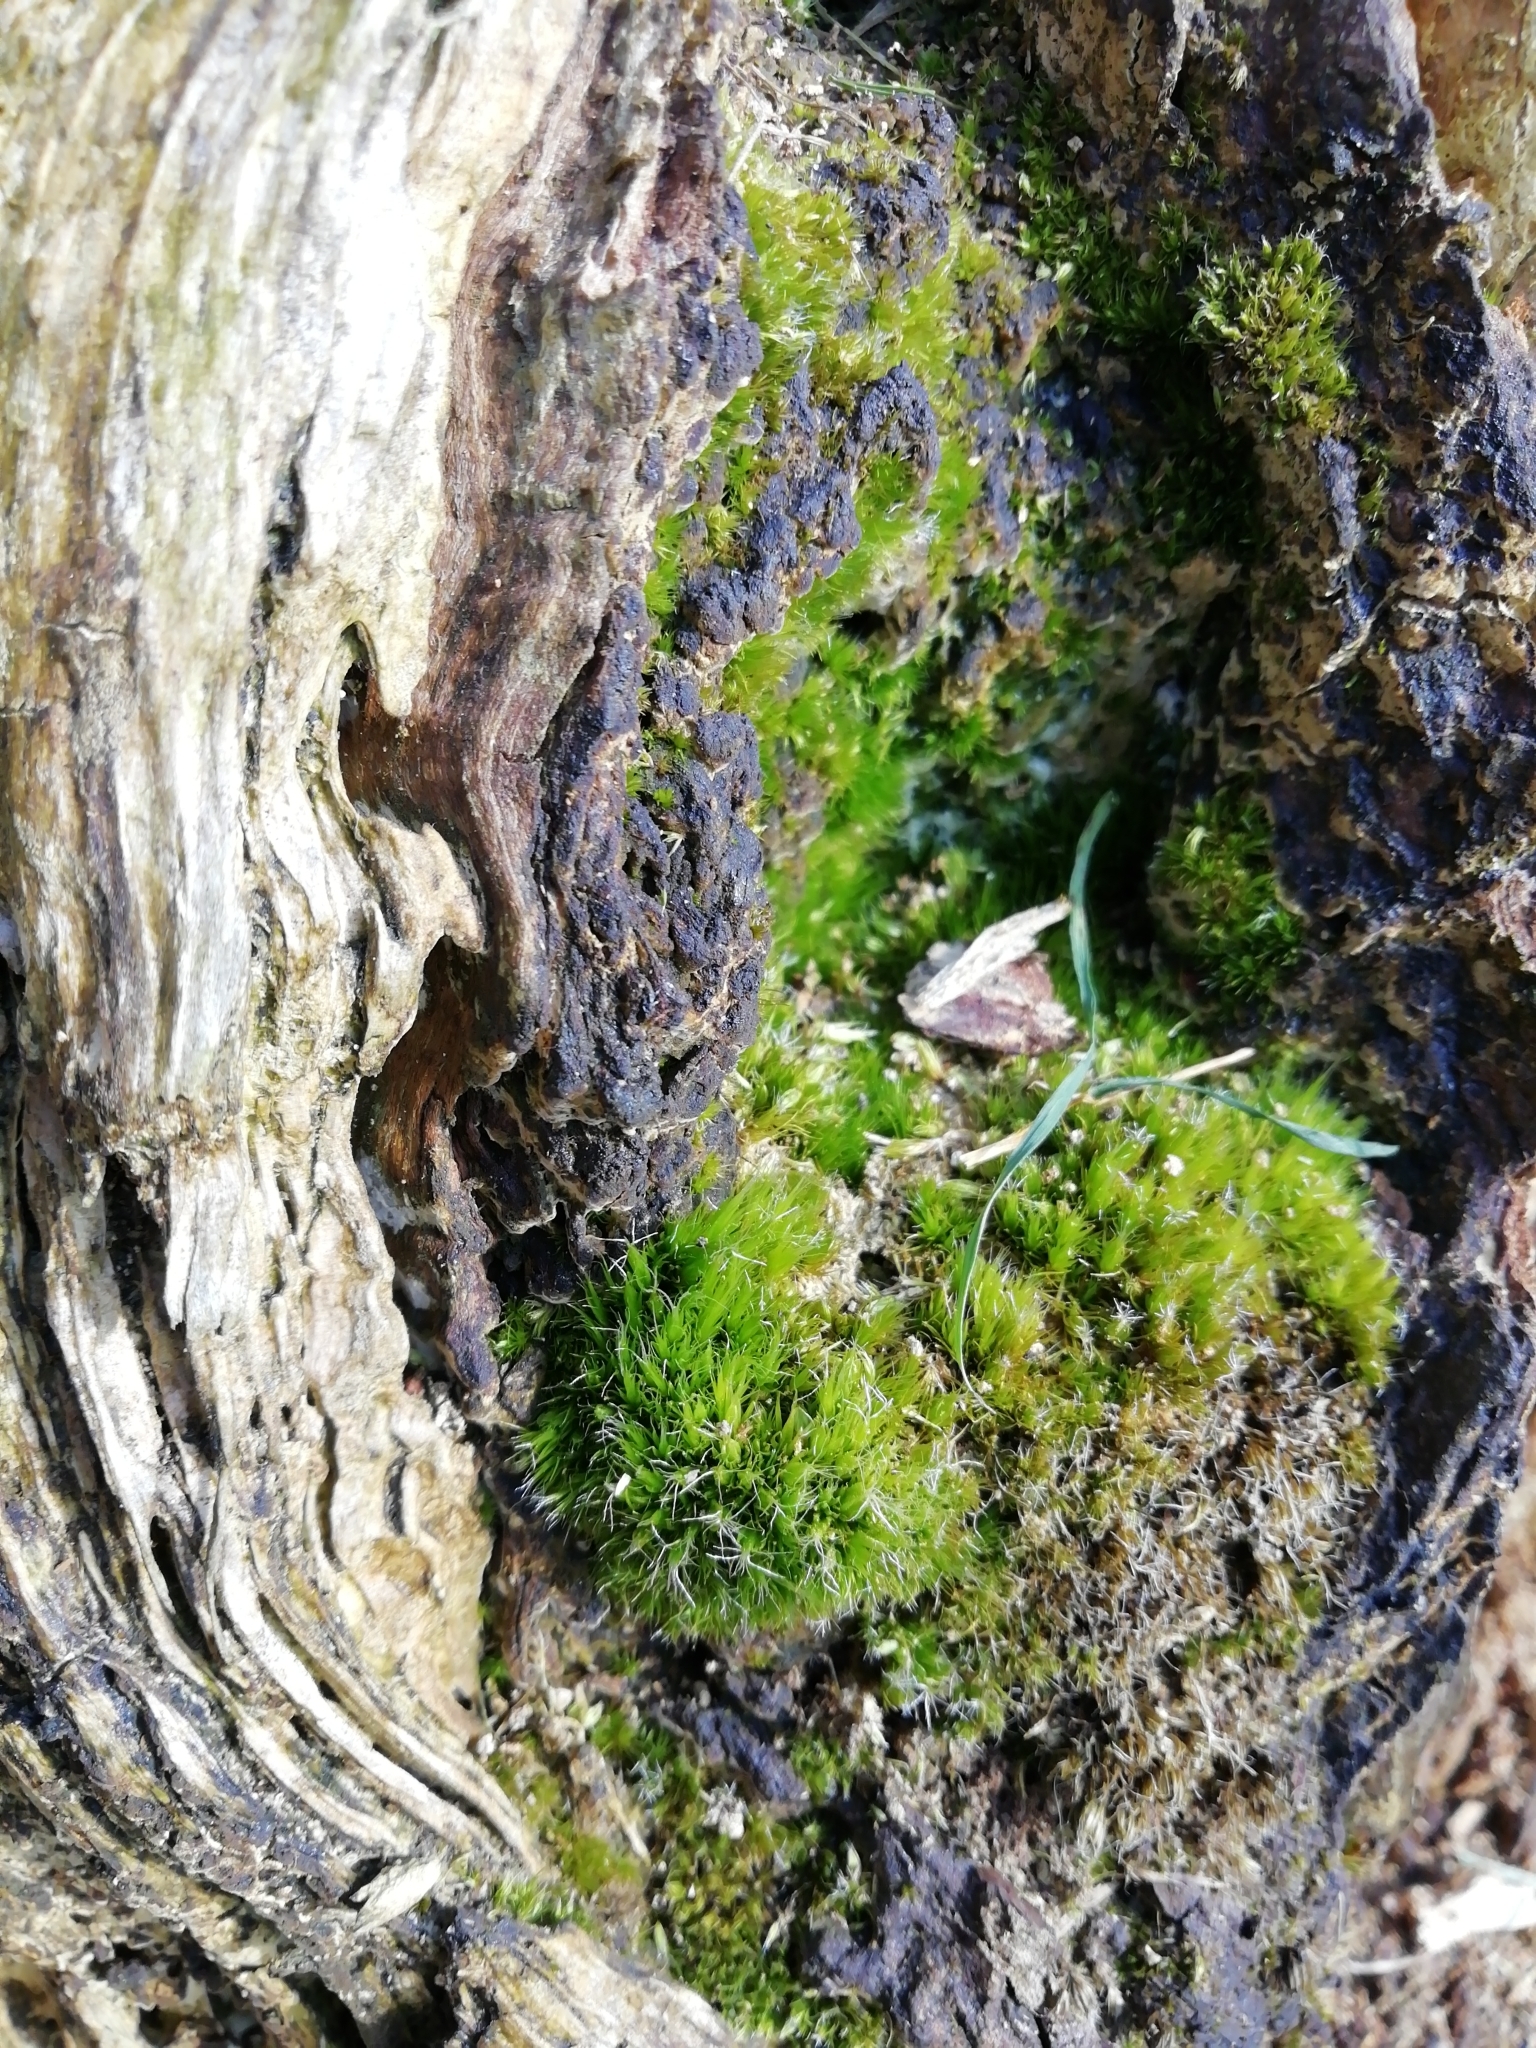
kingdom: Plantae
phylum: Bryophyta
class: Bryopsida
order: Dicranales
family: Leucobryaceae
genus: Campylopus
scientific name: Campylopus introflexus
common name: Heath star moss
